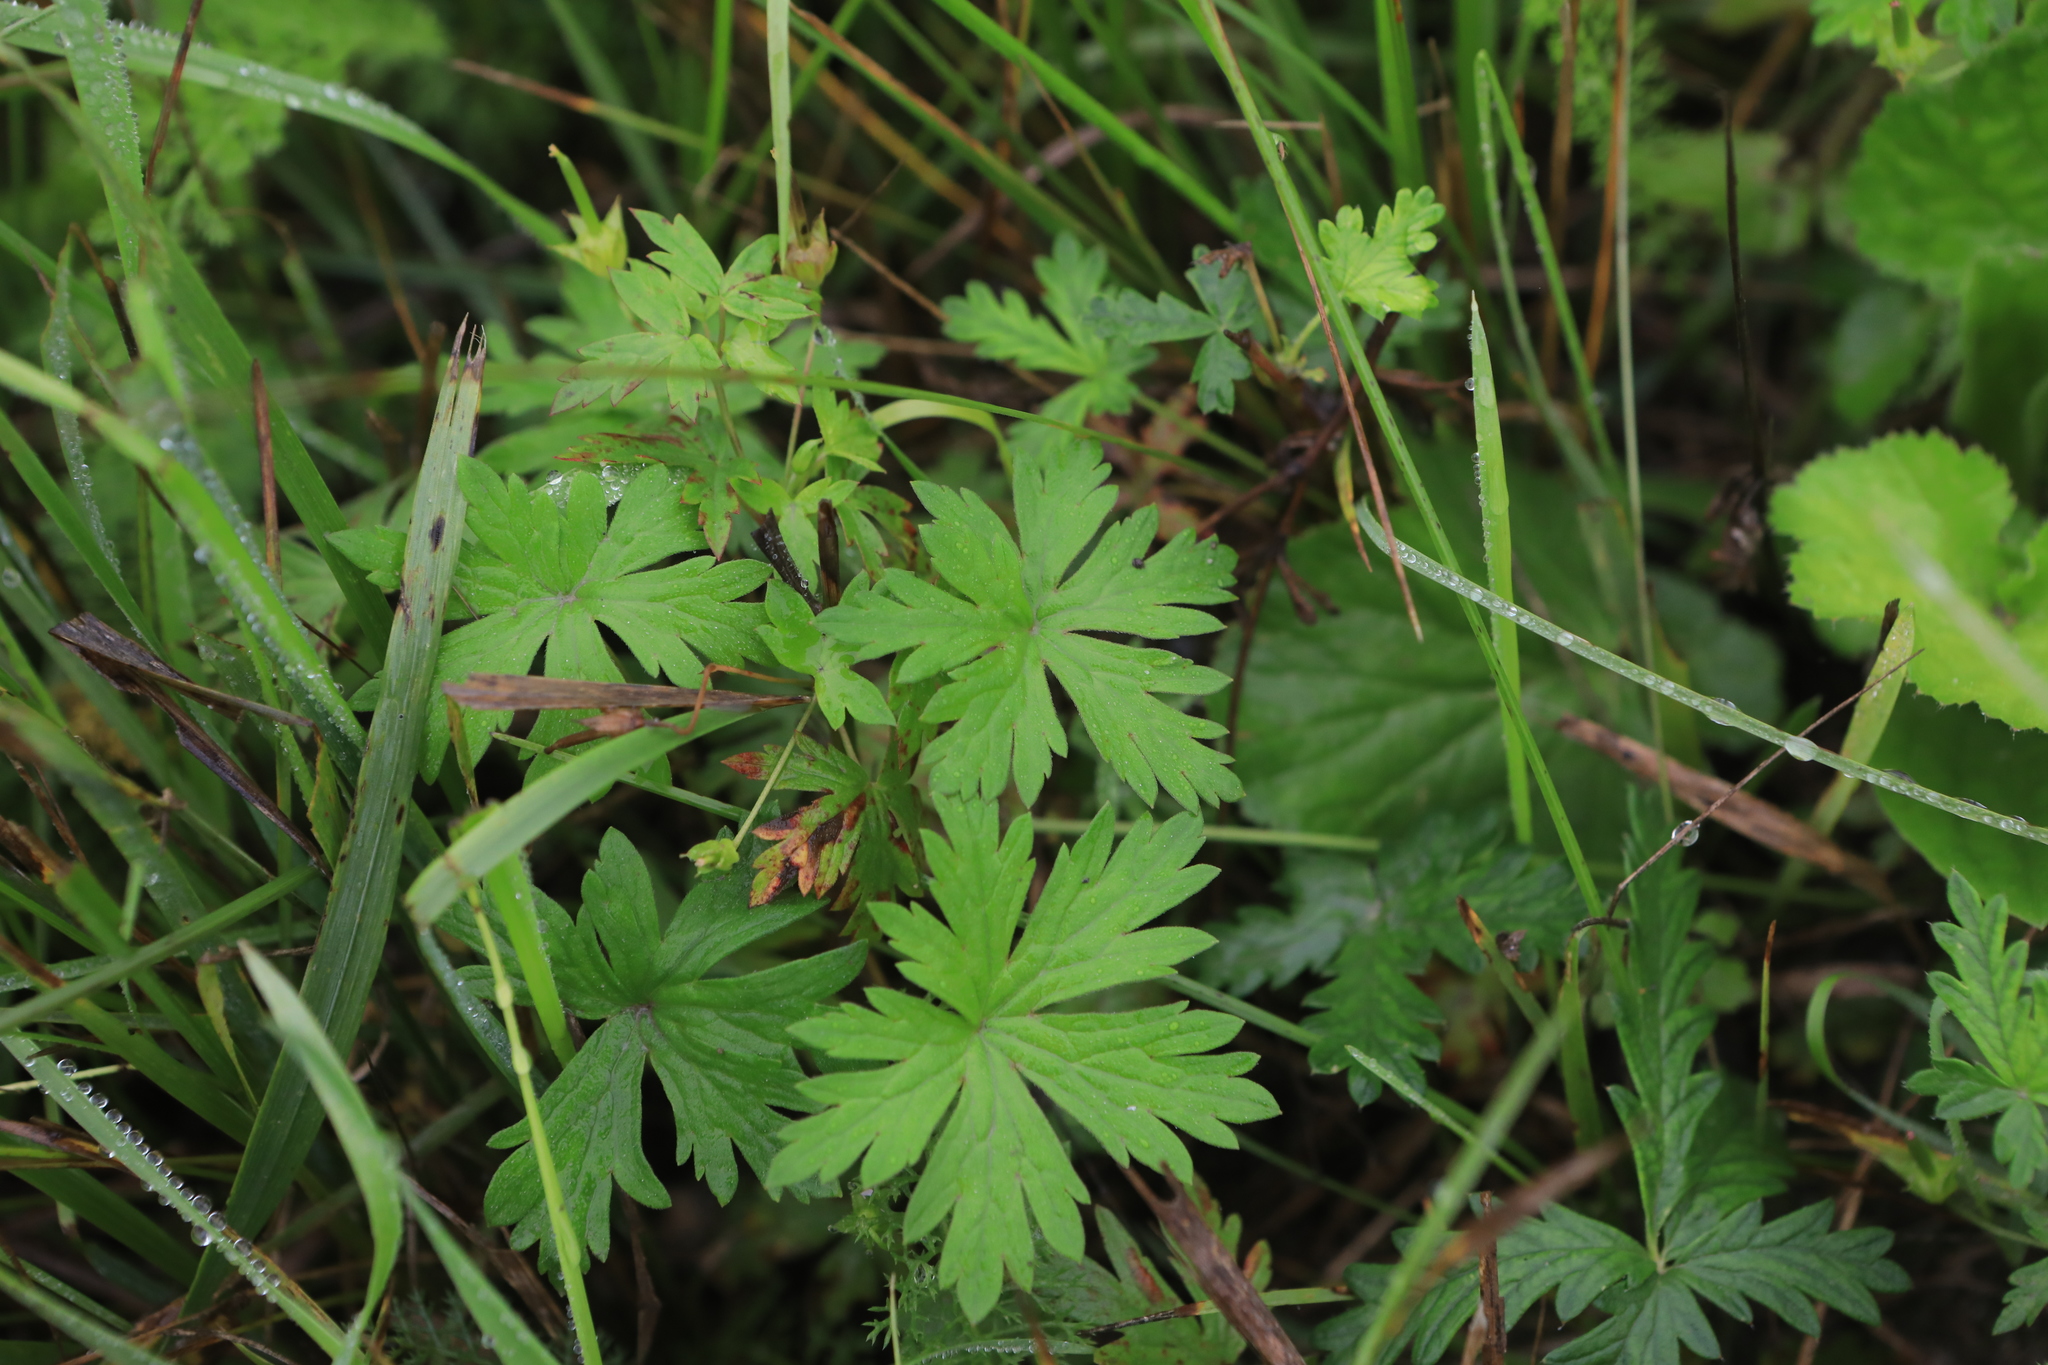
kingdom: Plantae
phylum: Tracheophyta
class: Magnoliopsida
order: Geraniales
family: Geraniaceae
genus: Geranium
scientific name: Geranium sibiricum
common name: Siberian crane's-bill
